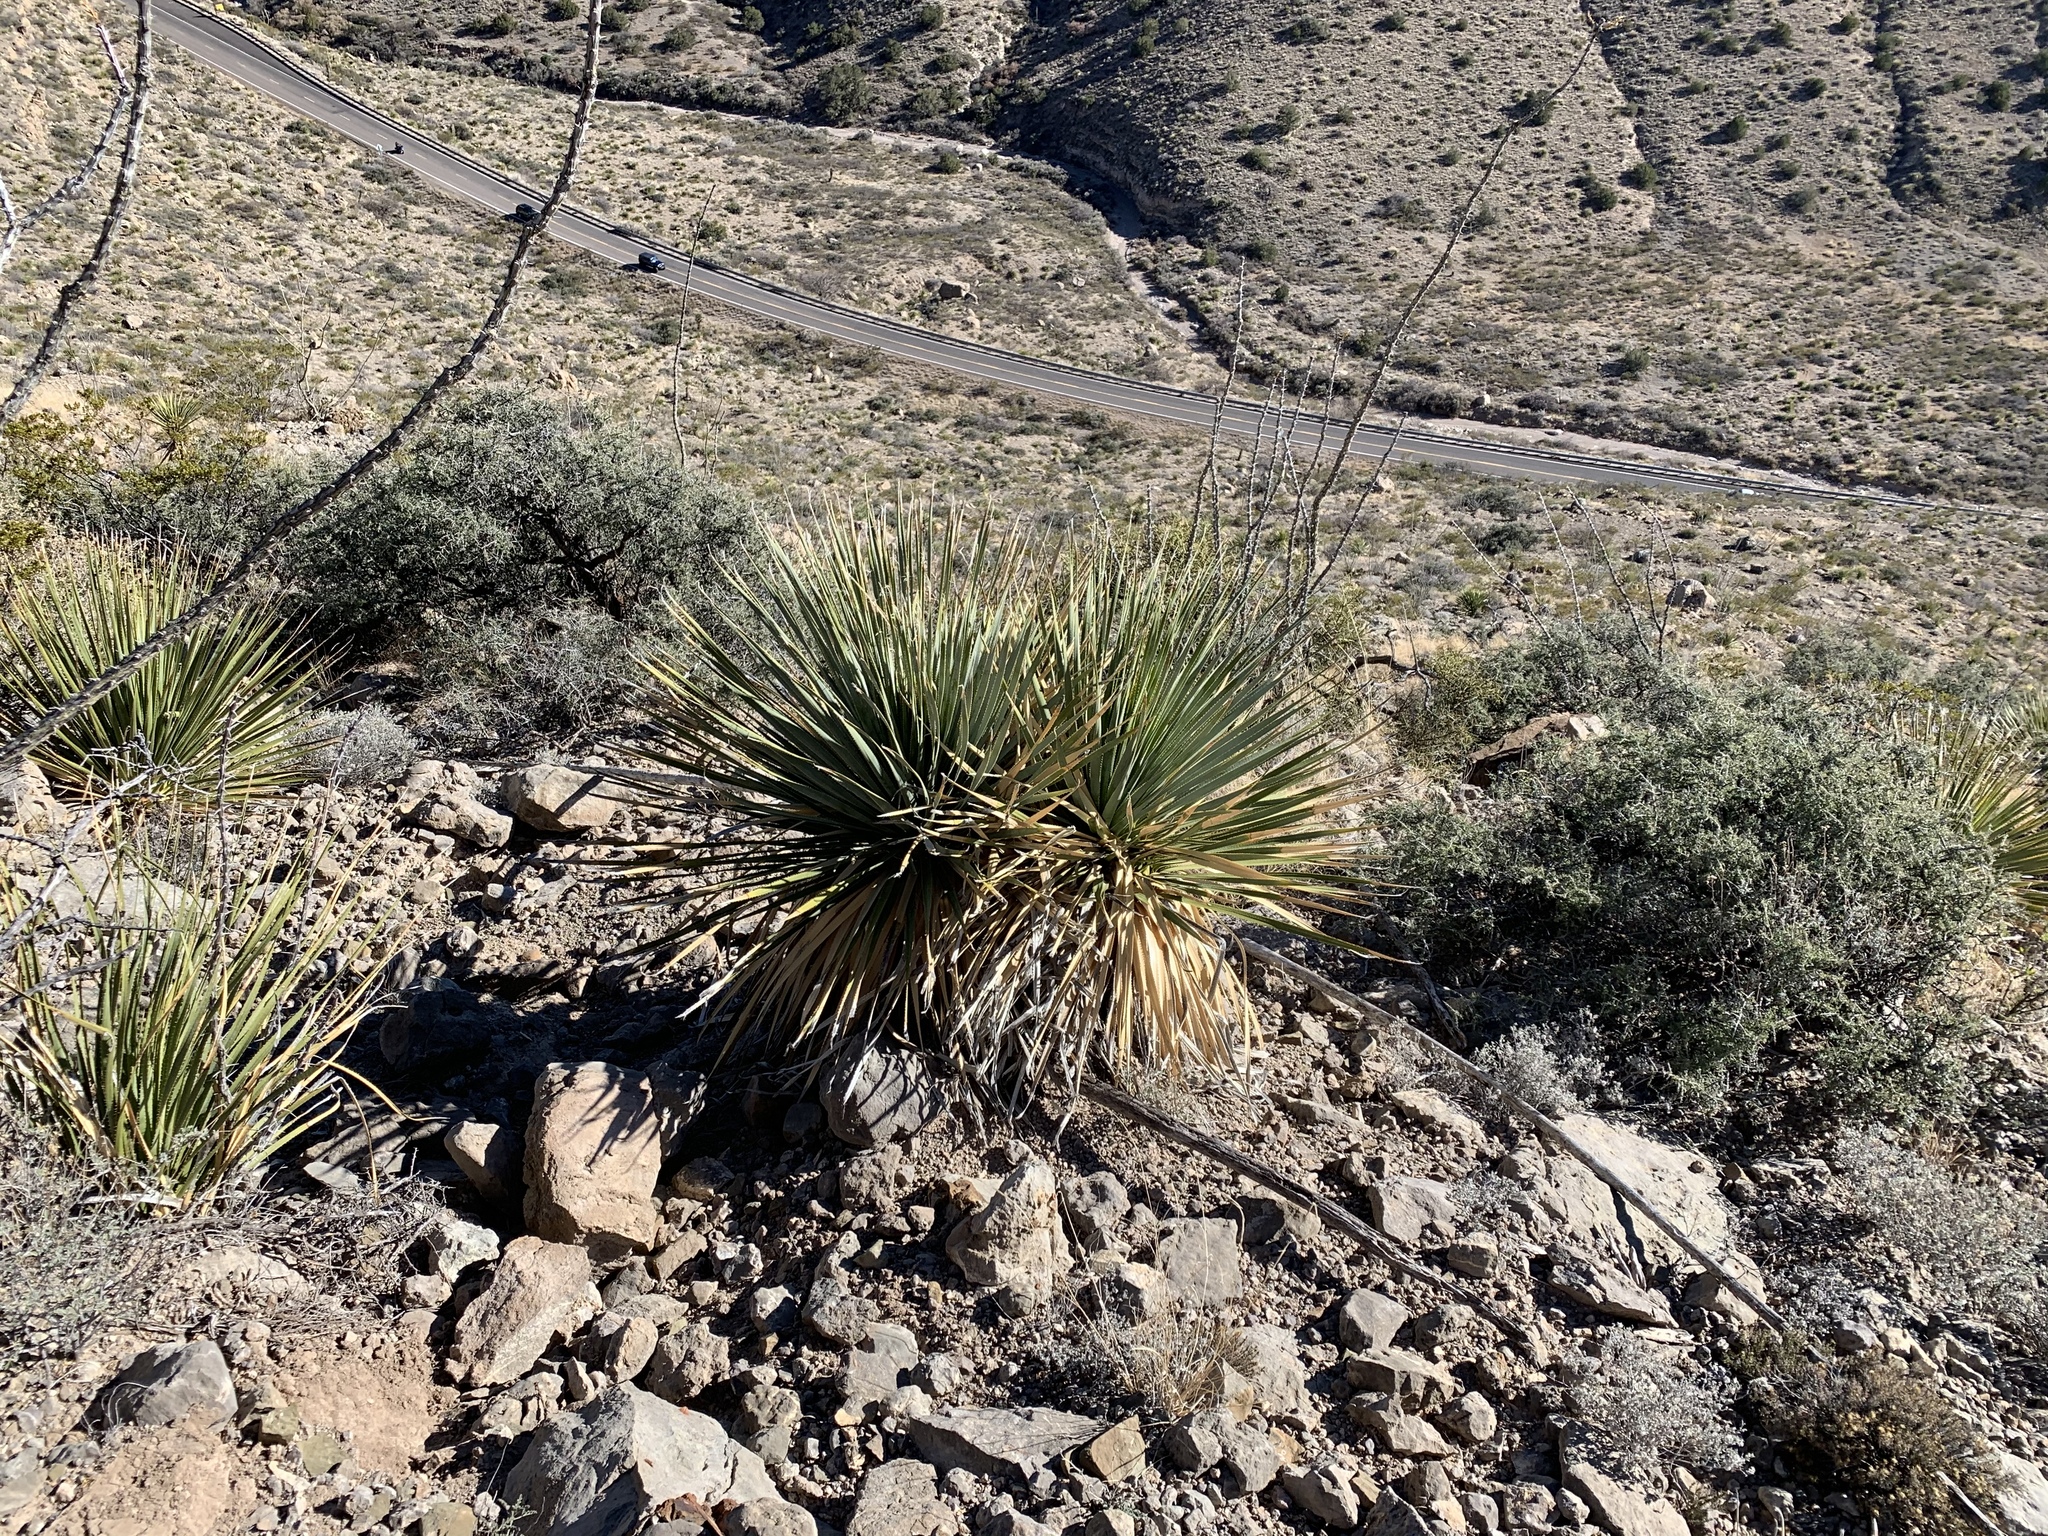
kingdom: Plantae
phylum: Tracheophyta
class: Liliopsida
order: Asparagales
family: Asparagaceae
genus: Dasylirion
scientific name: Dasylirion wheeleri
